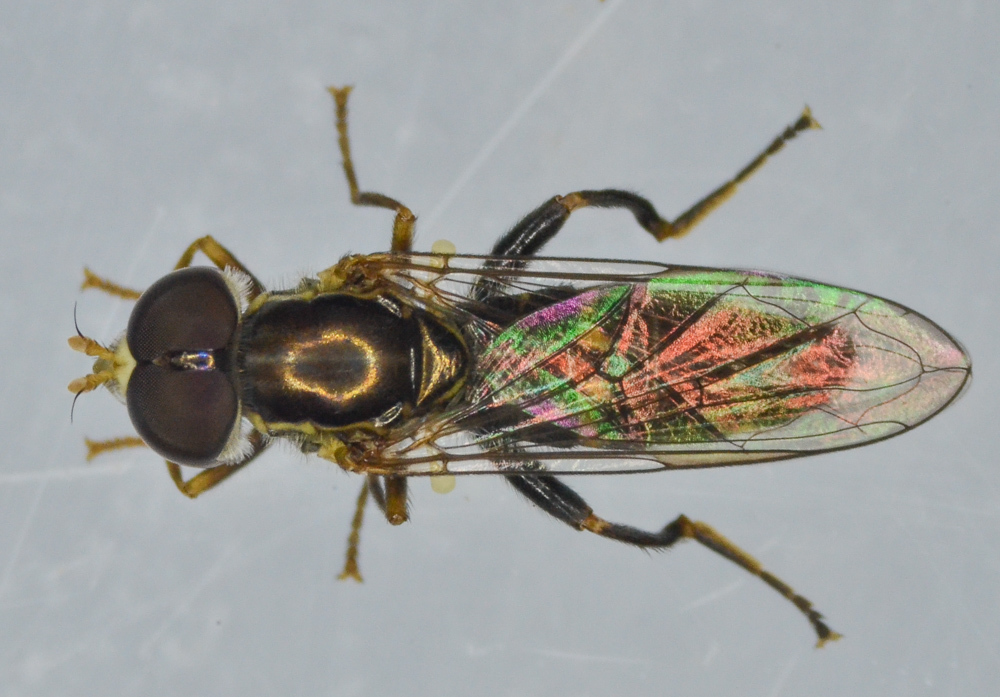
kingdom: Animalia
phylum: Arthropoda
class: Insecta
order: Diptera
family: Syrphidae
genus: Toxomerus
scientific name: Toxomerus occidentalis
